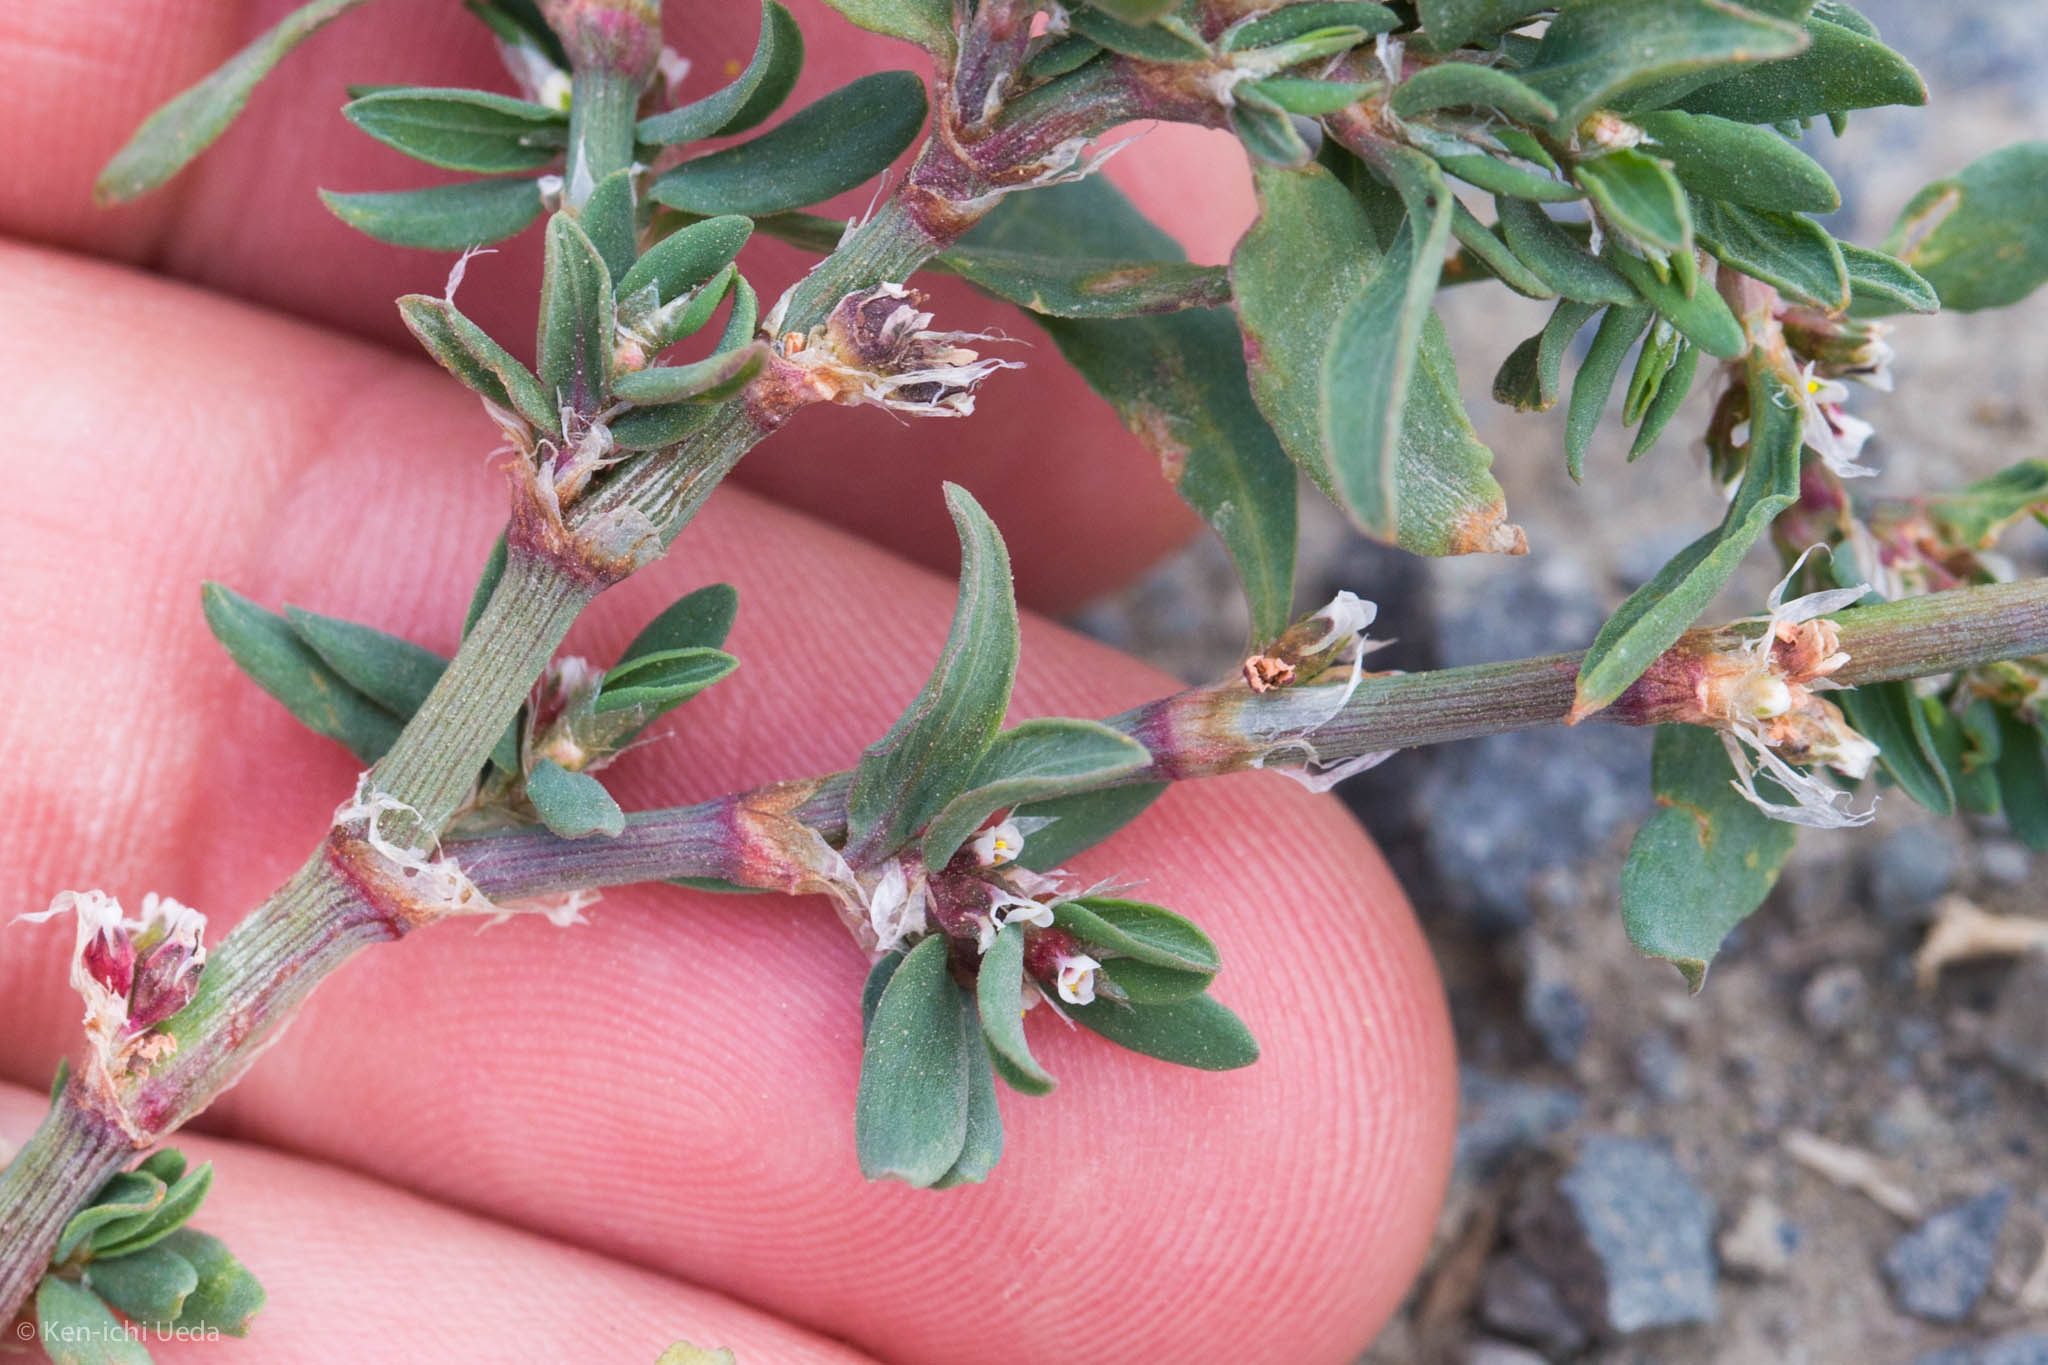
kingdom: Plantae
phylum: Tracheophyta
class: Magnoliopsida
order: Caryophyllales
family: Polygonaceae
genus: Polygonum
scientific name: Polygonum aviculare
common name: Prostrate knotweed
